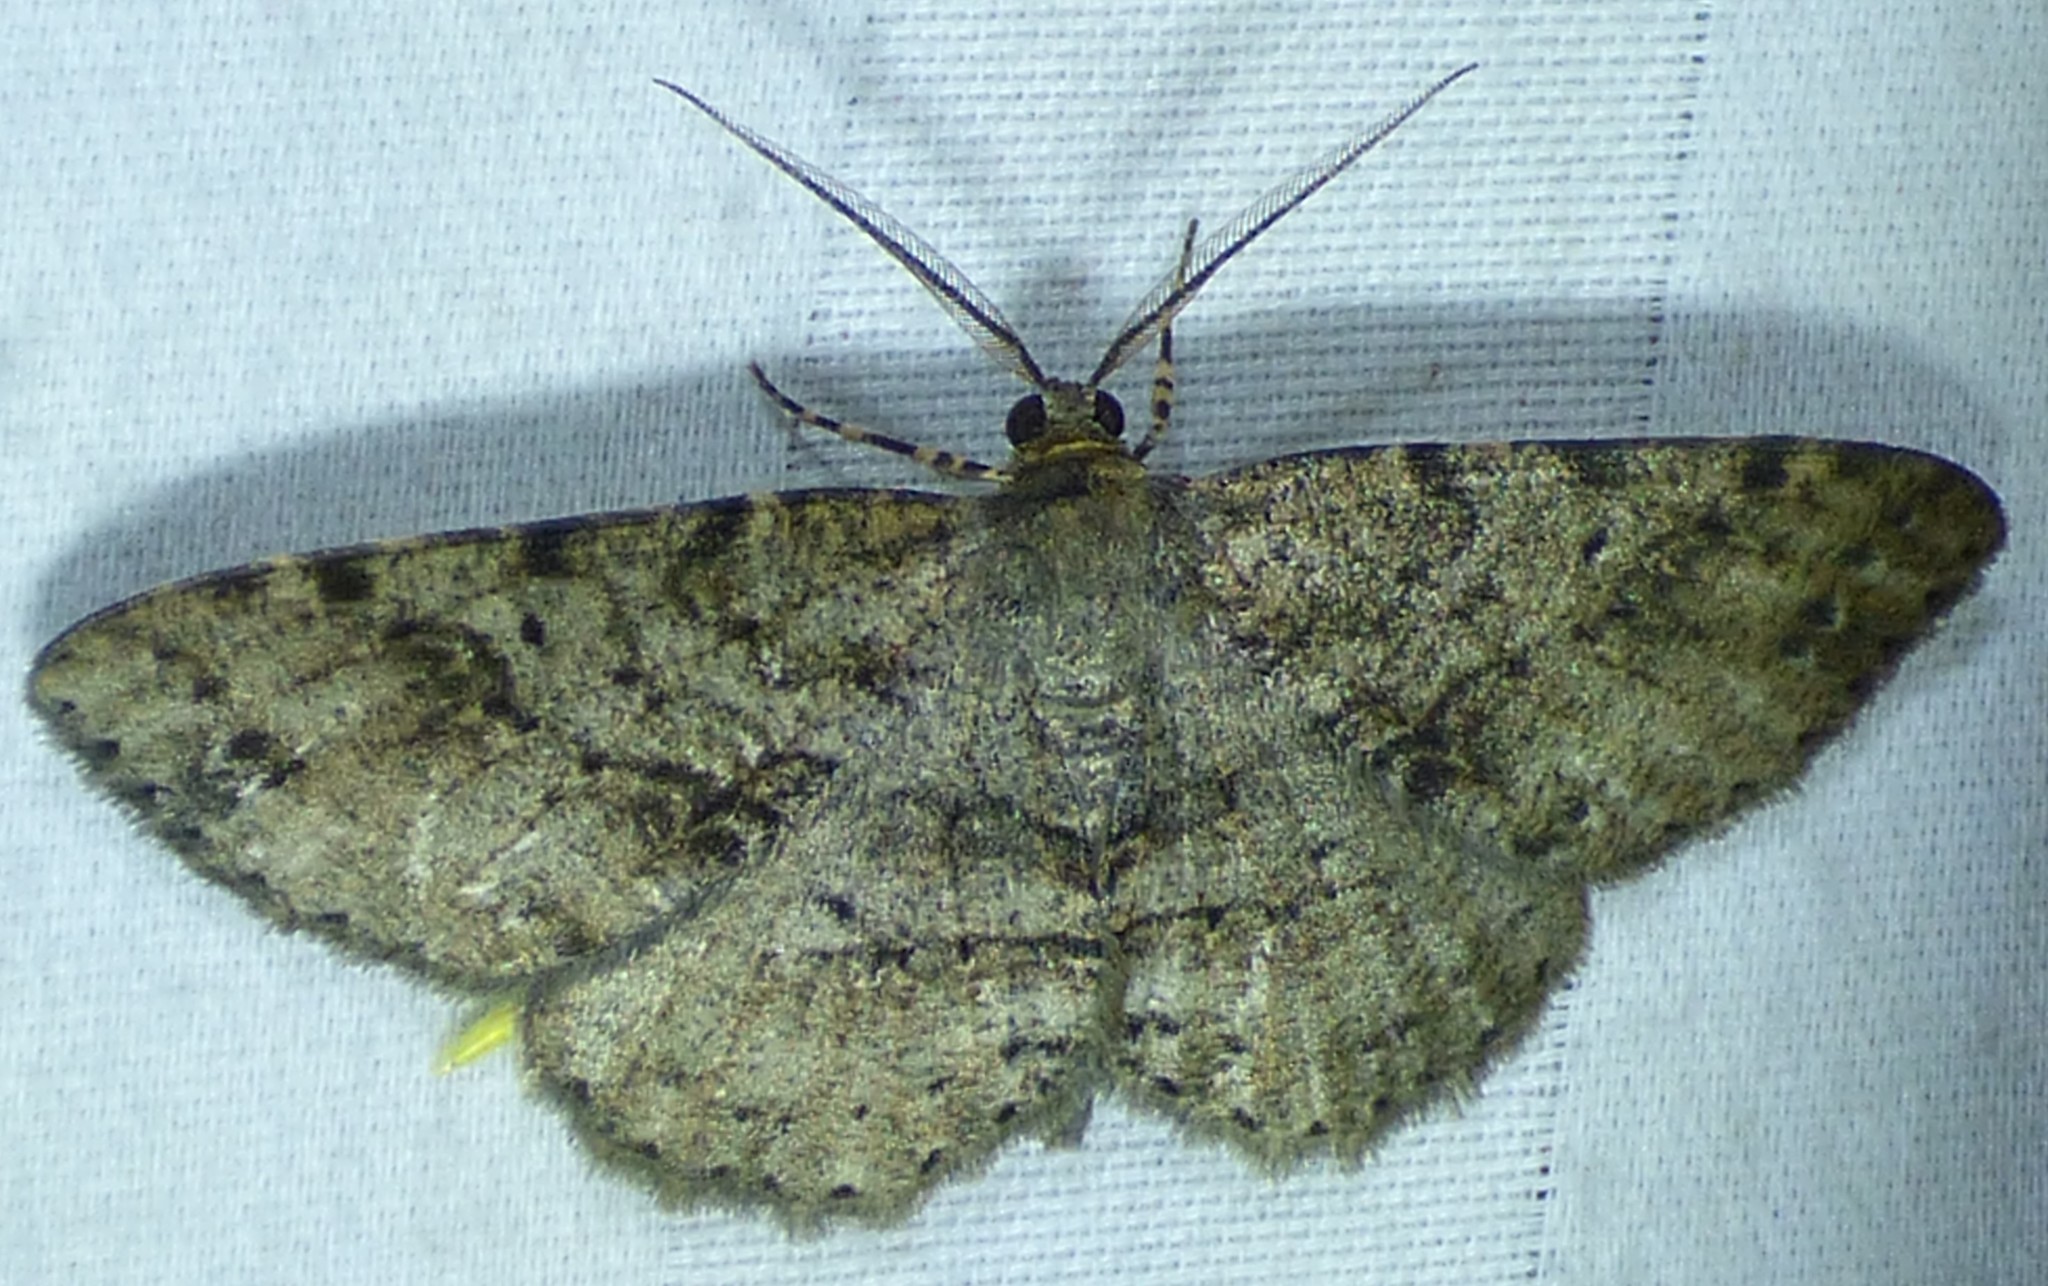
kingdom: Animalia
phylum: Arthropoda
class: Insecta
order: Lepidoptera
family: Geometridae
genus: Melanolophia
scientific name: Melanolophia canadaria
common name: Canadian melanolophia
